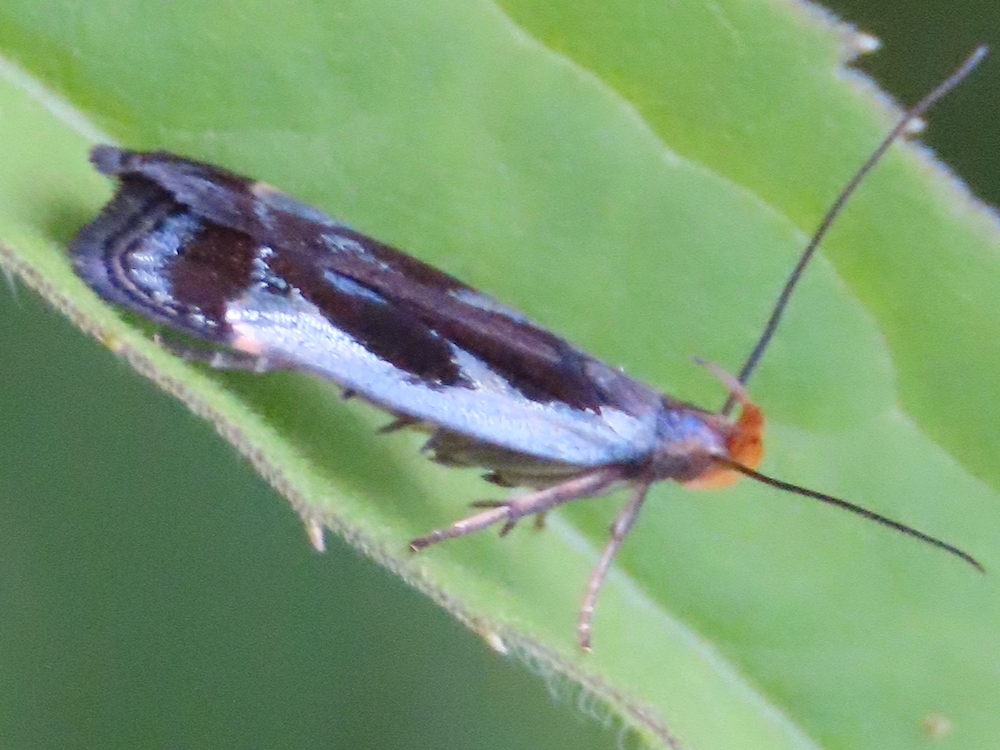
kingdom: Animalia
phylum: Arthropoda
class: Insecta
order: Lepidoptera
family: Gelechiidae
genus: Dichomeris
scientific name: Dichomeris ochripalpella
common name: Shining dichomeris moth
